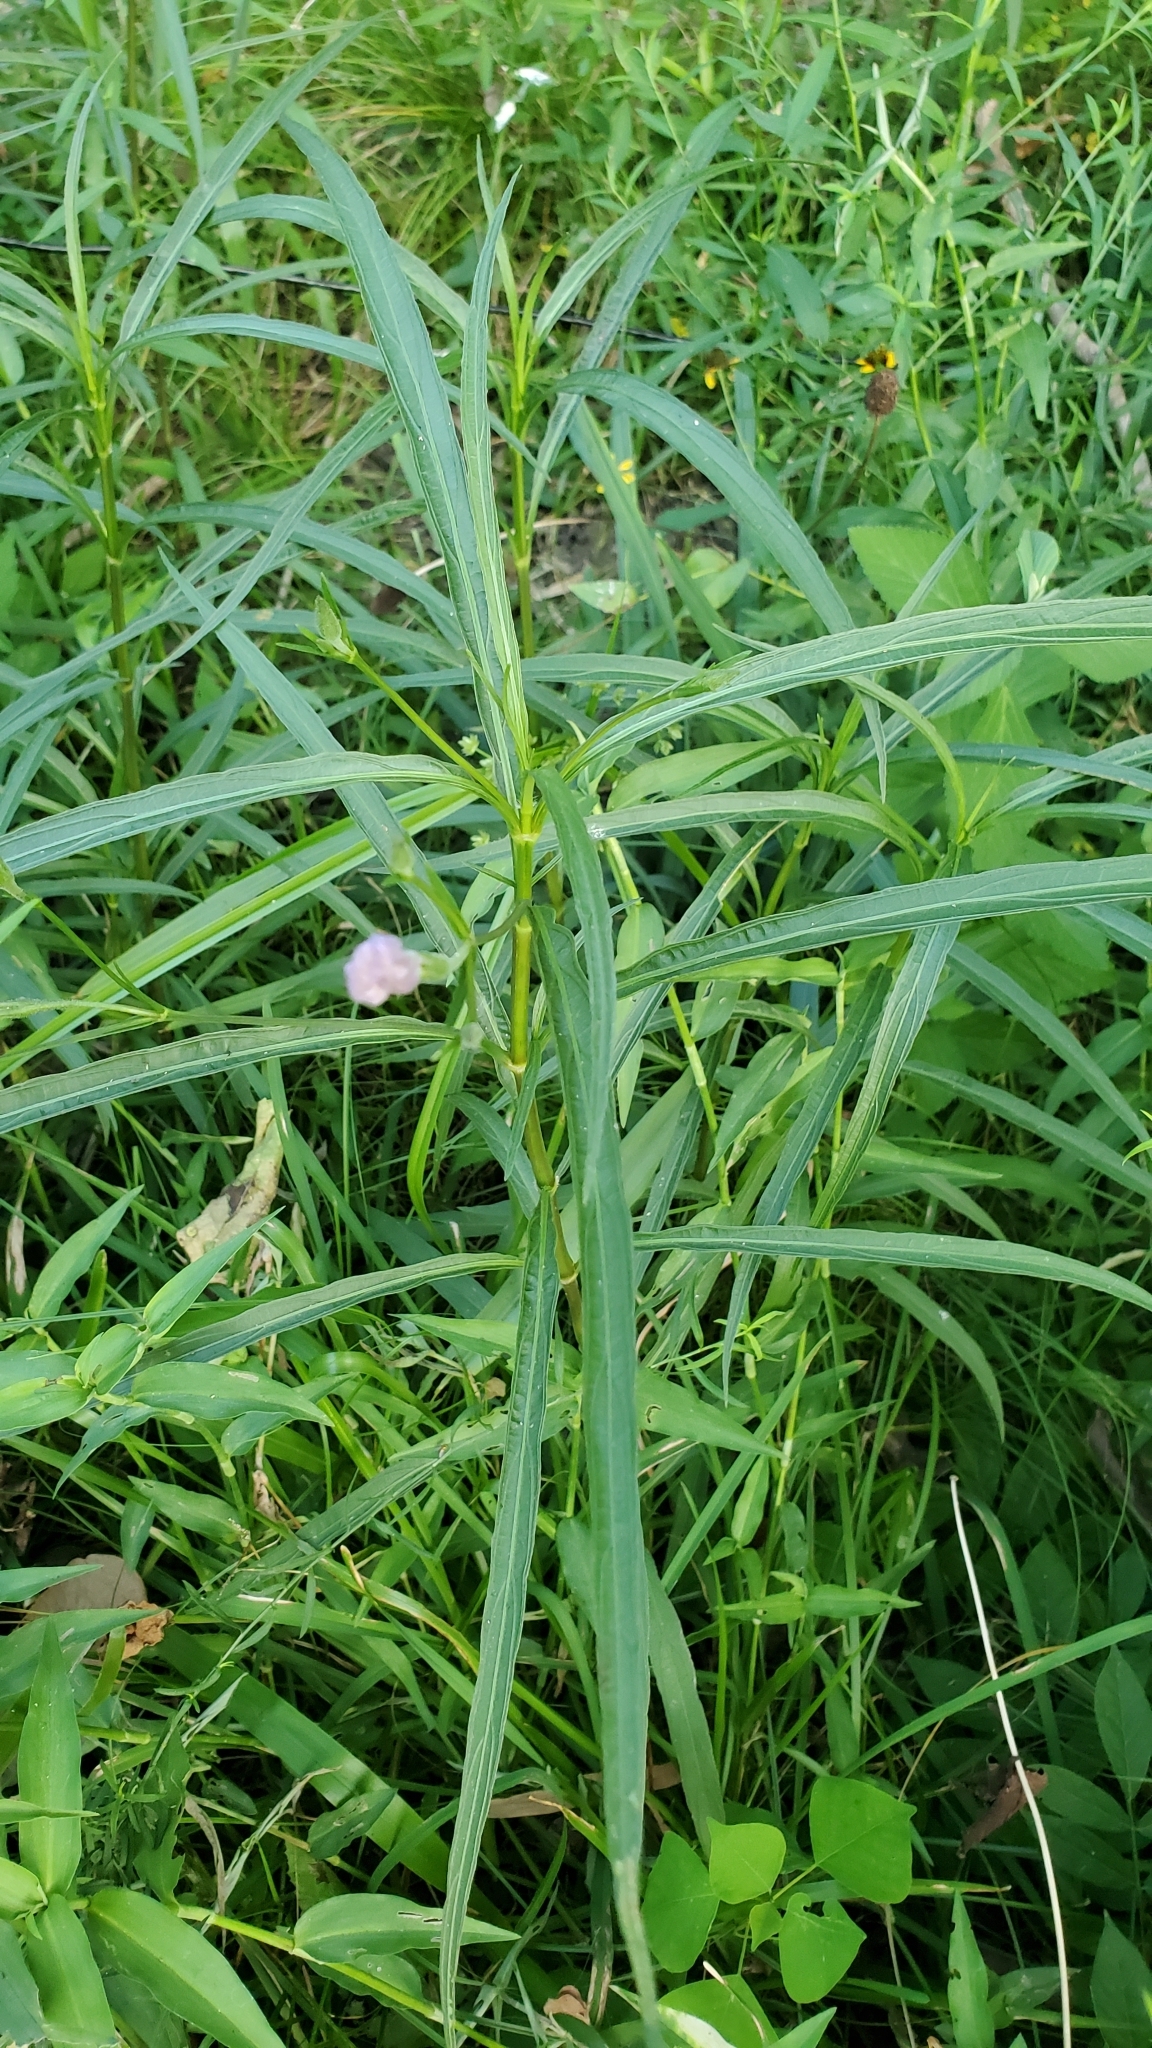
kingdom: Plantae
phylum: Tracheophyta
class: Magnoliopsida
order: Lamiales
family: Acanthaceae
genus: Ruellia
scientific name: Ruellia simplex
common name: Softseed wild petunia
